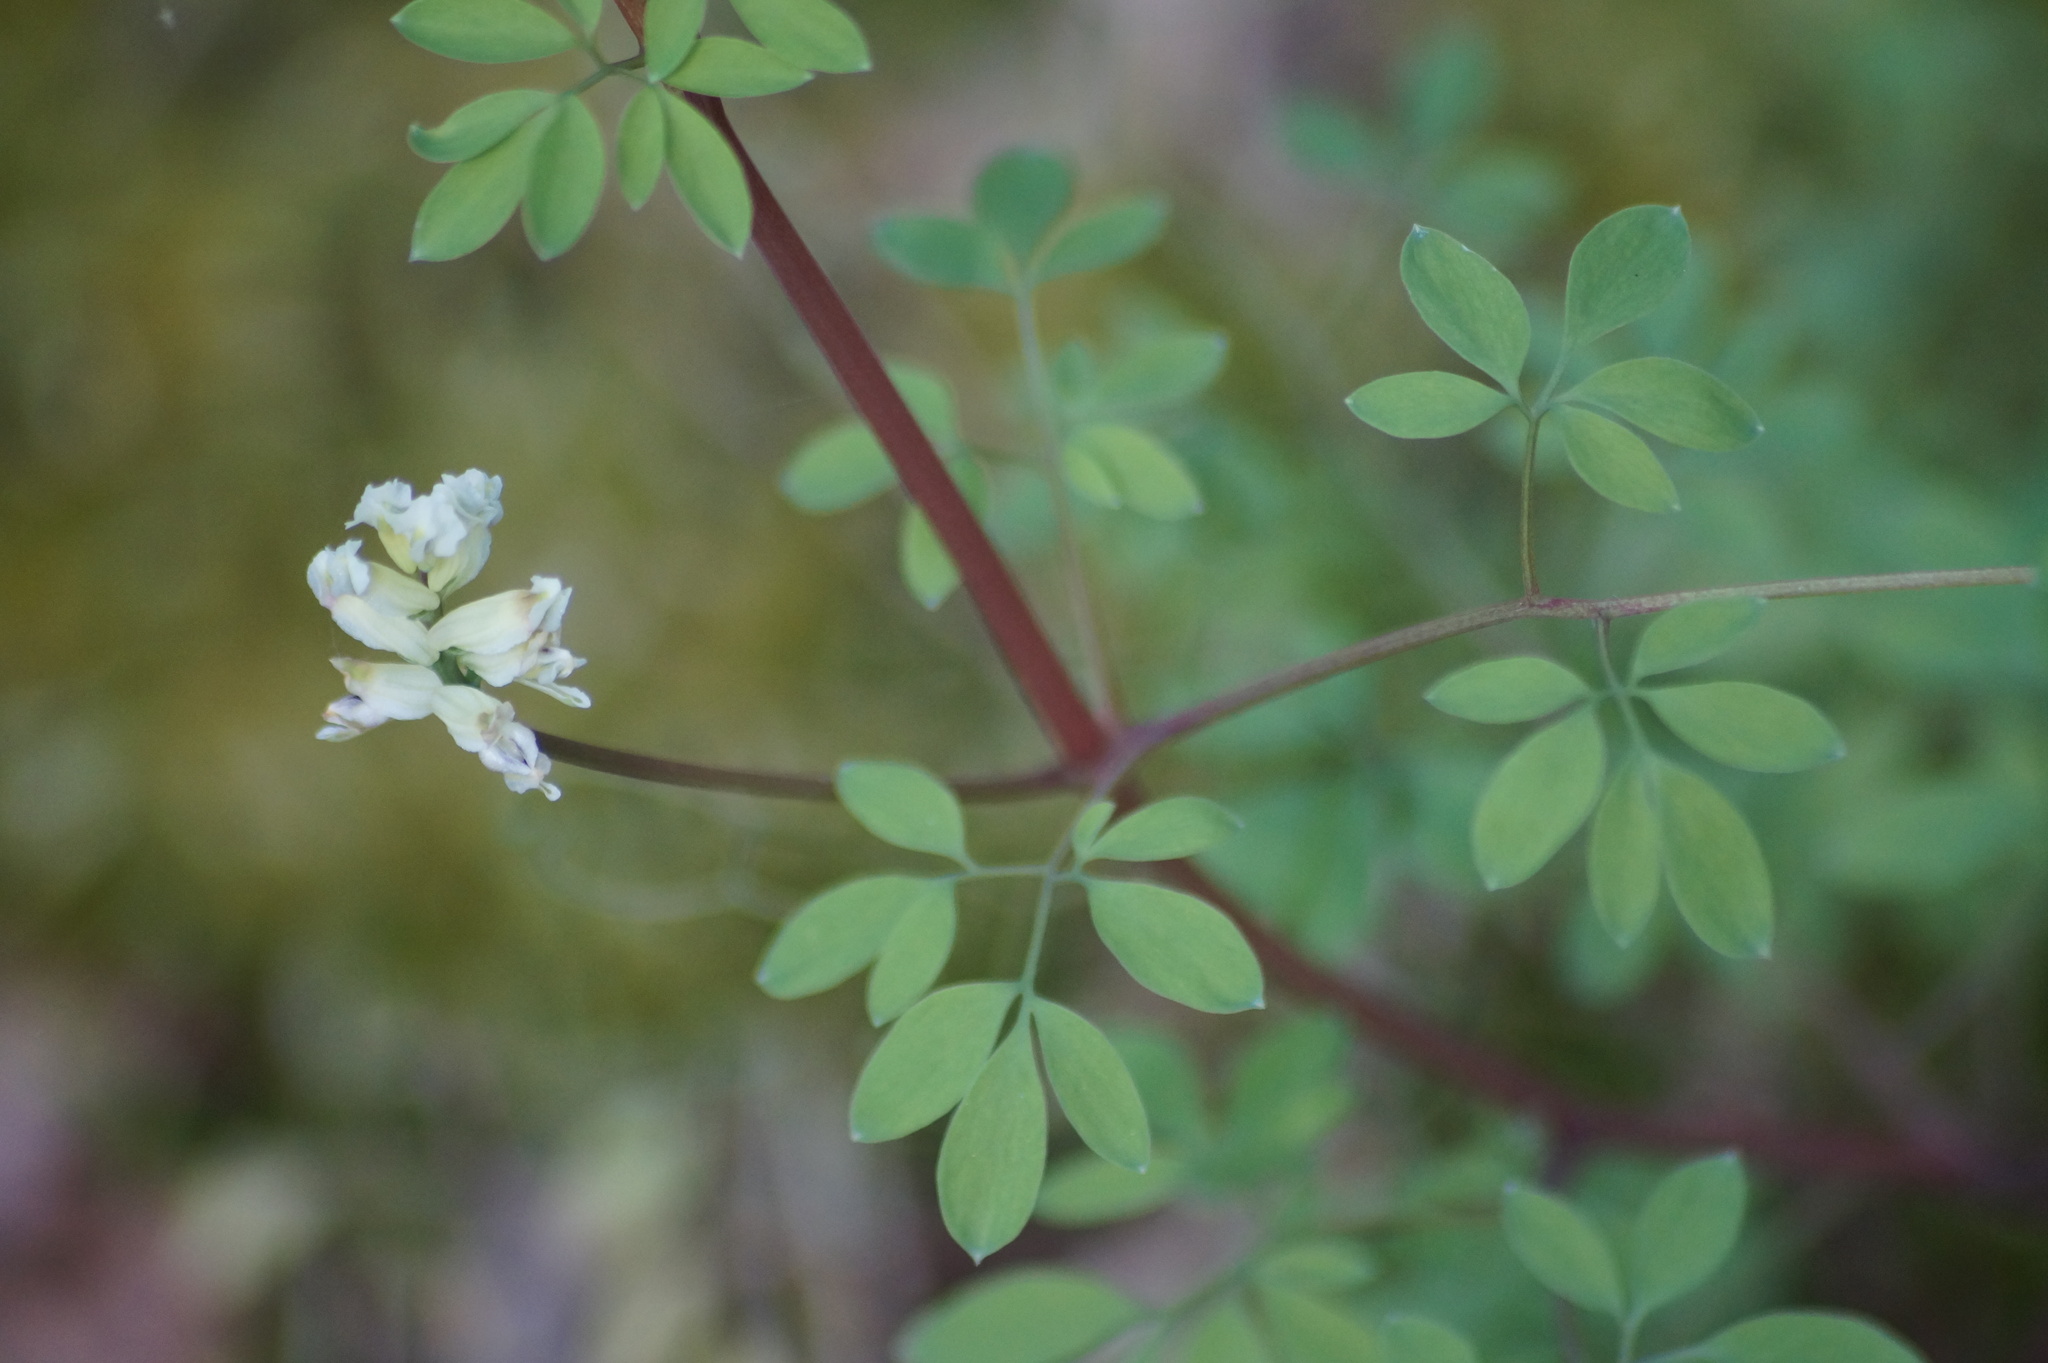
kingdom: Plantae
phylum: Tracheophyta
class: Magnoliopsida
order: Ranunculales
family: Papaveraceae
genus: Ceratocapnos
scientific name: Ceratocapnos claviculata
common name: Climbing corydalis
